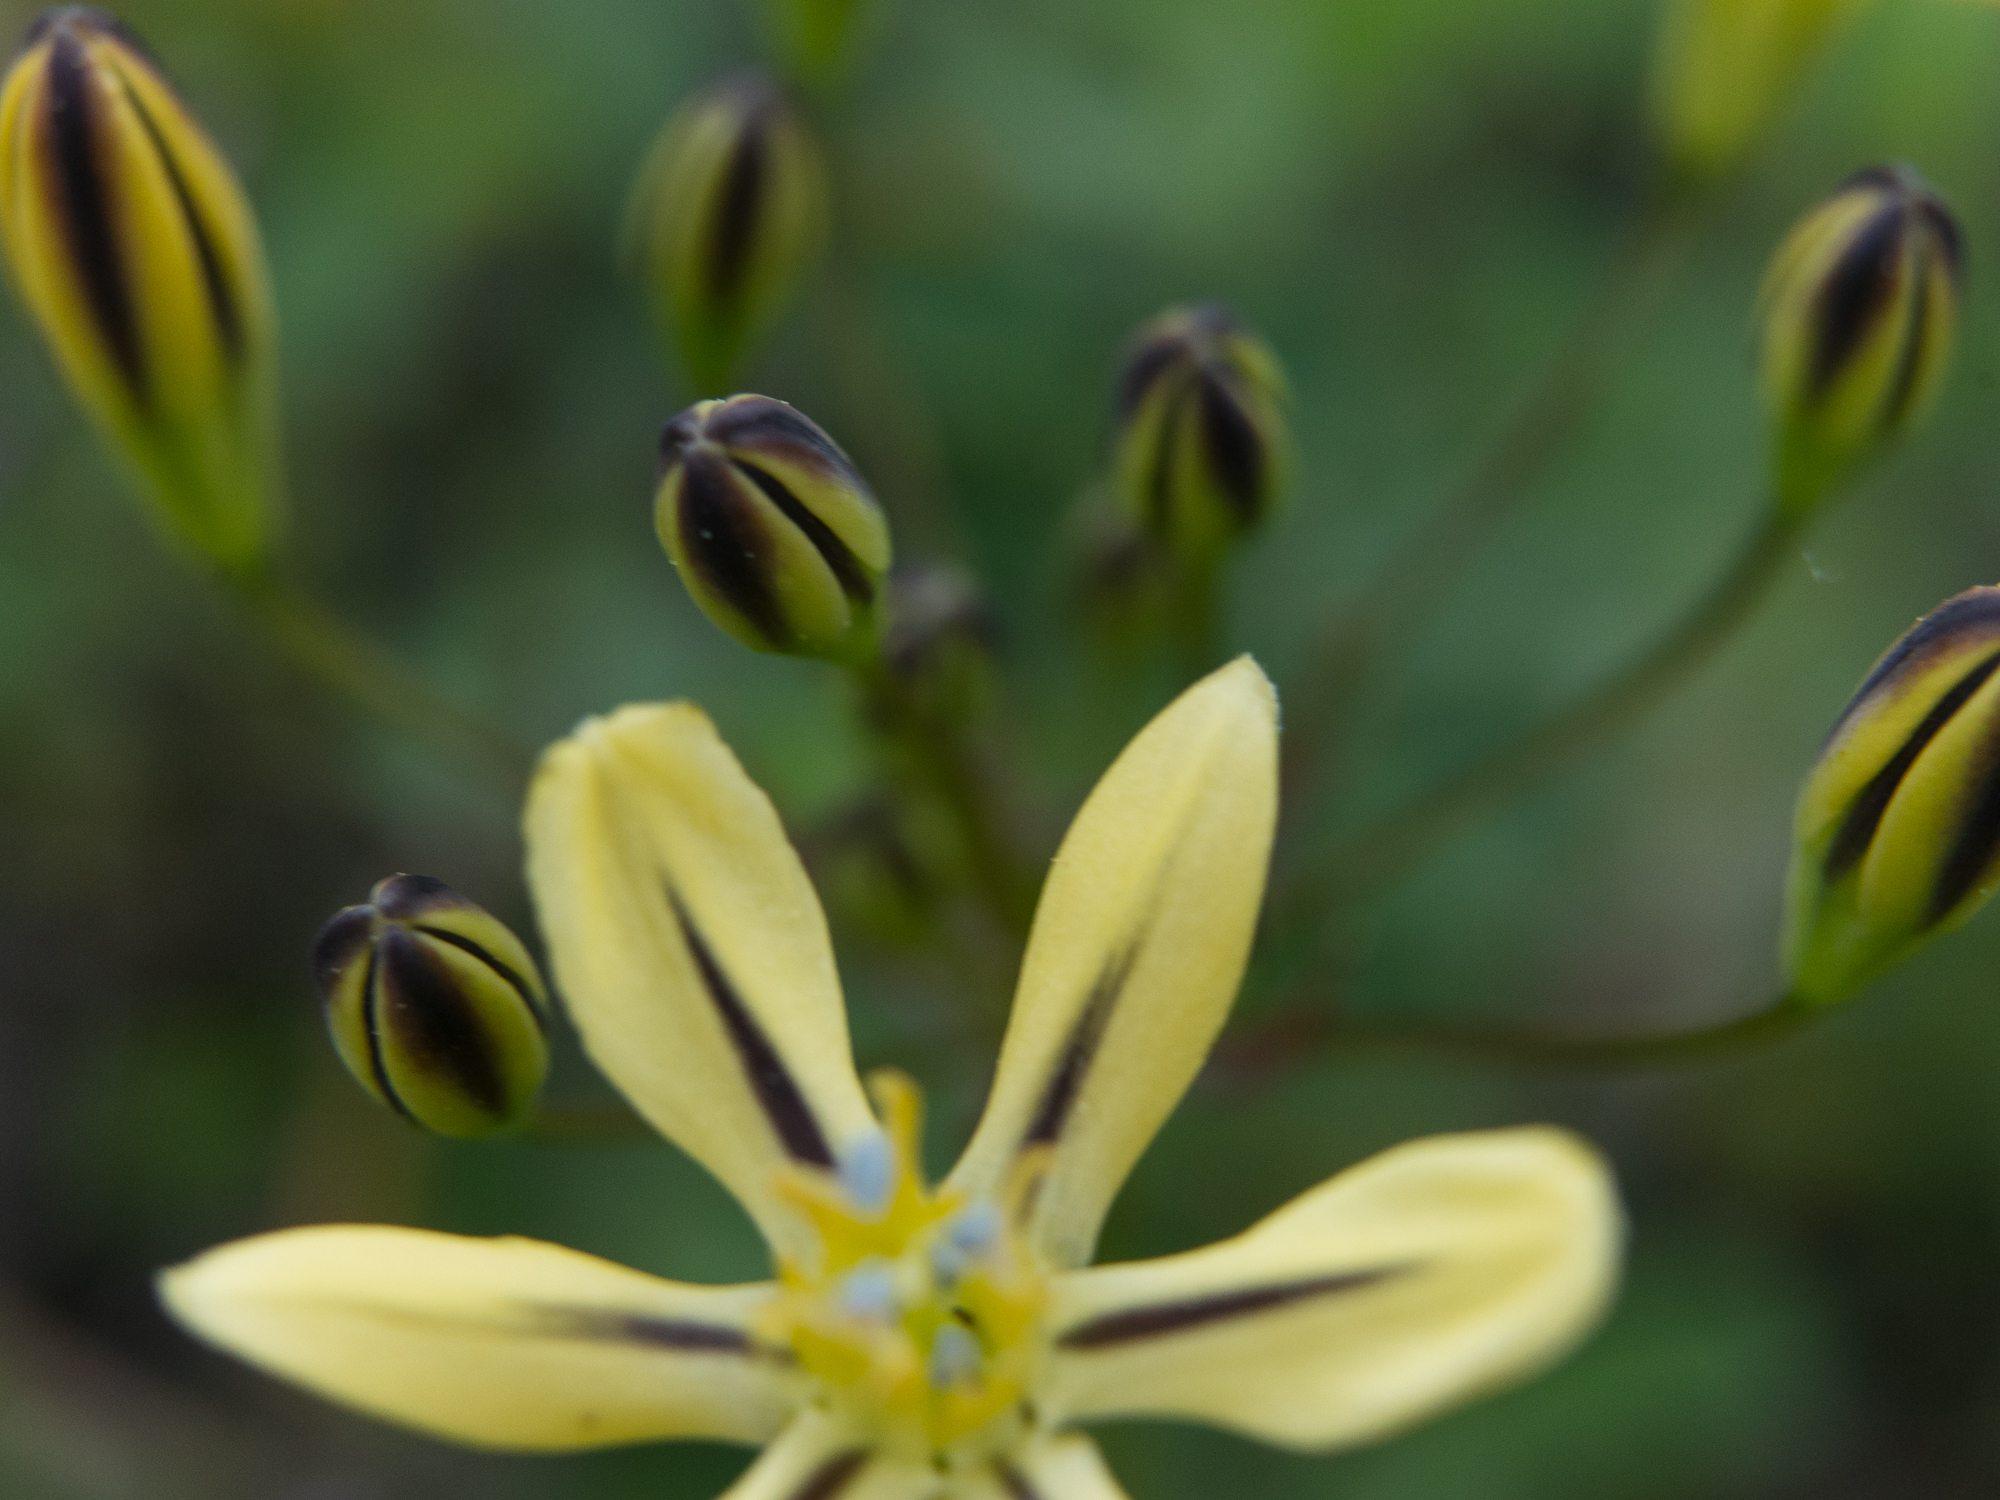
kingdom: Plantae
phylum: Tracheophyta
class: Liliopsida
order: Asparagales
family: Asparagaceae
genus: Triteleia
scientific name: Triteleia ixioides
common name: Yellow-brodiaea
